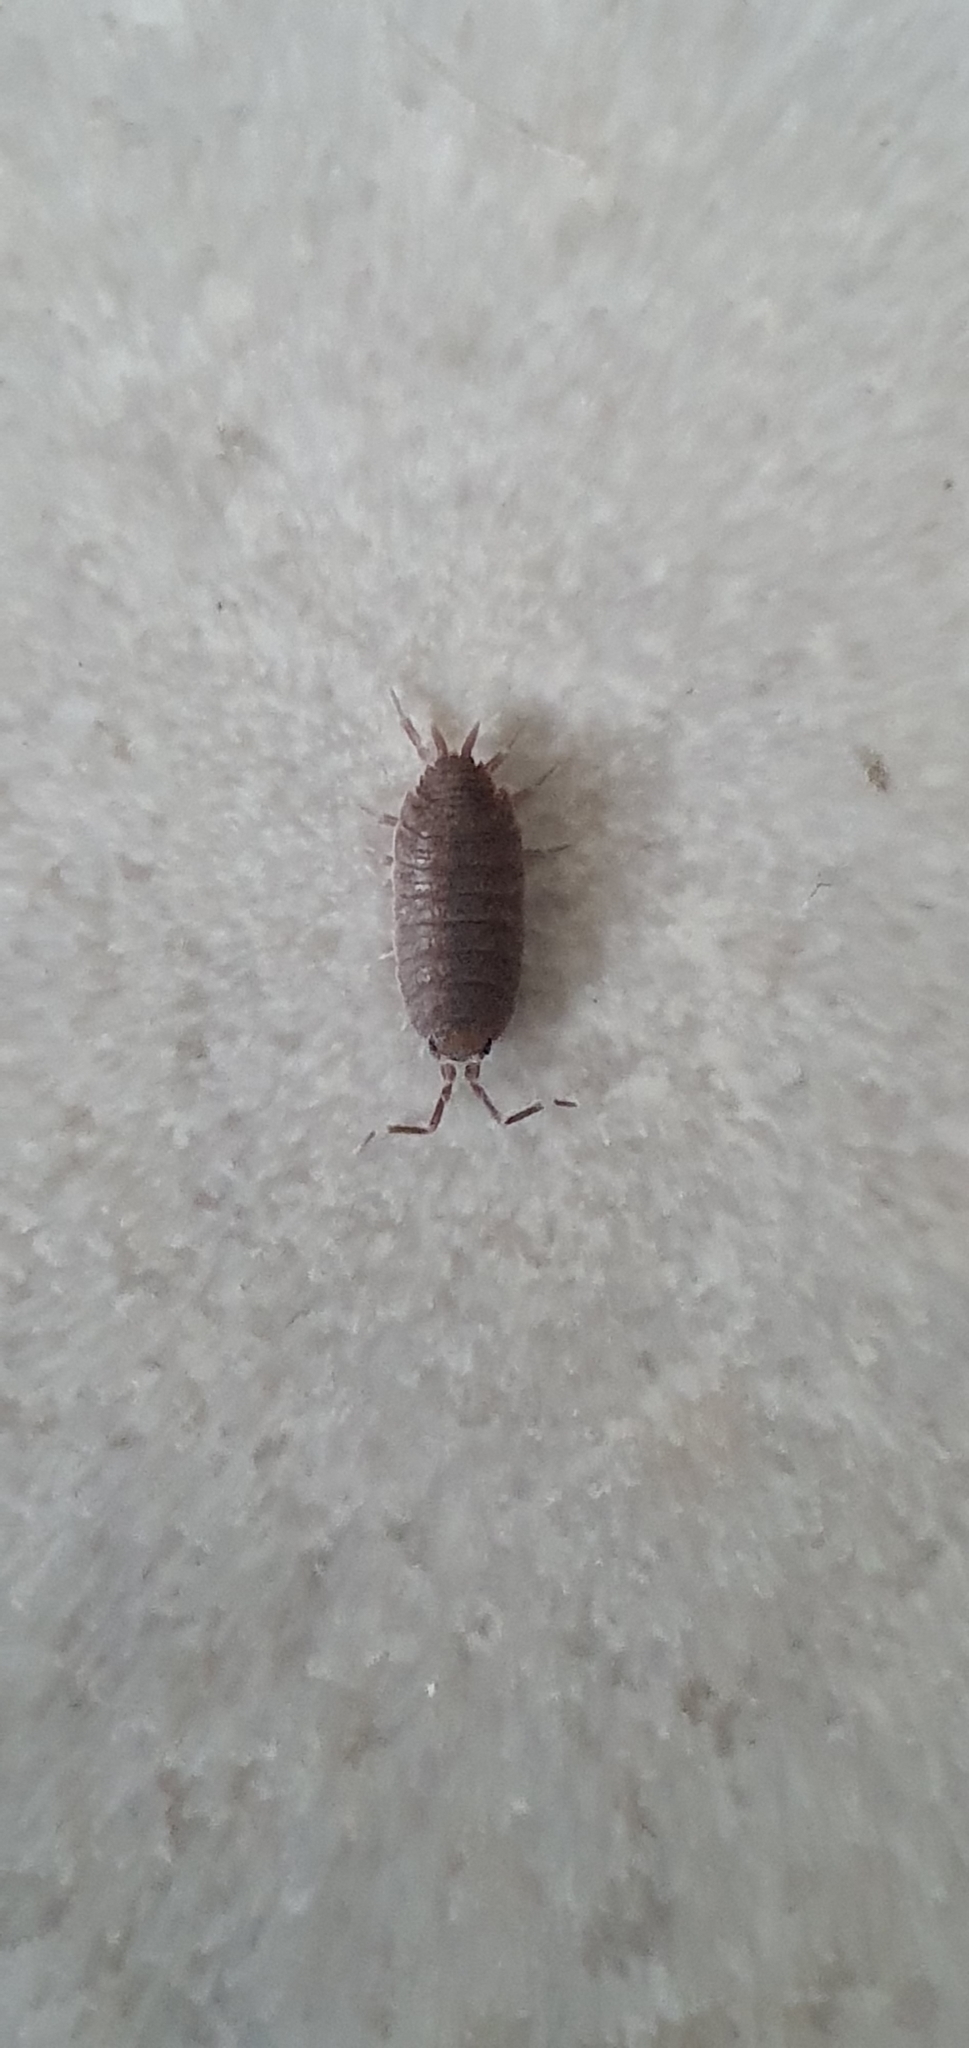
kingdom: Animalia
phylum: Arthropoda
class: Malacostraca
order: Isopoda
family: Porcellionidae
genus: Porcellionides
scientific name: Porcellionides pruinosus
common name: Plum woodlouse
